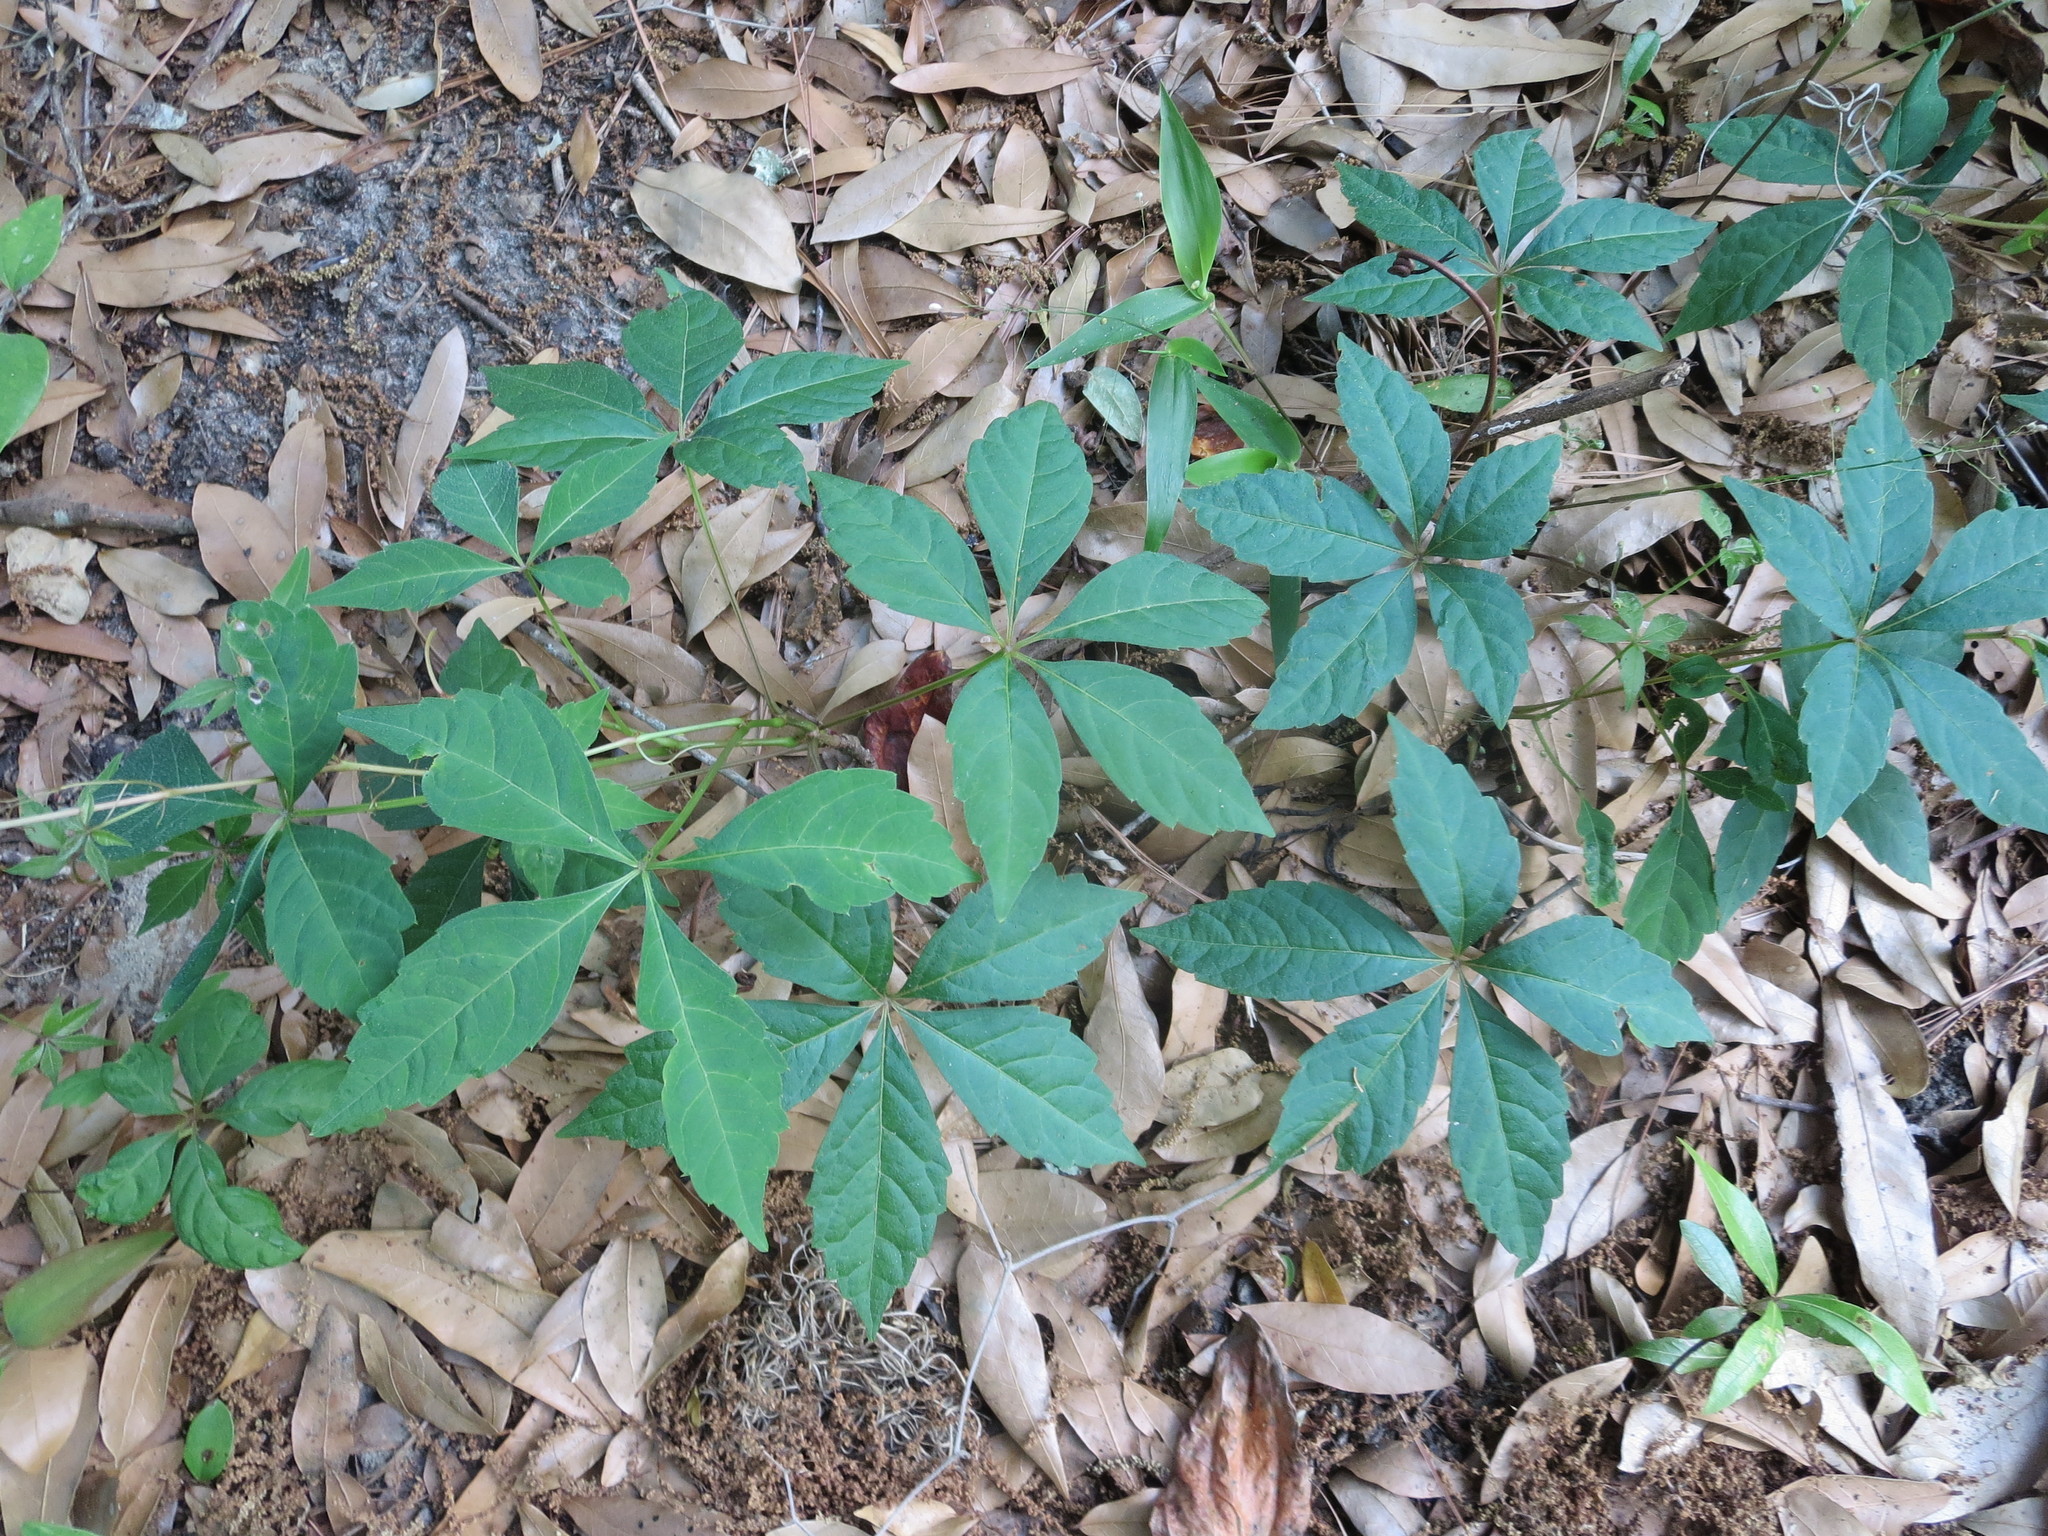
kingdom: Plantae
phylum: Tracheophyta
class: Magnoliopsida
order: Vitales
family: Vitaceae
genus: Parthenocissus
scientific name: Parthenocissus quinquefolia
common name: Virginia-creeper
